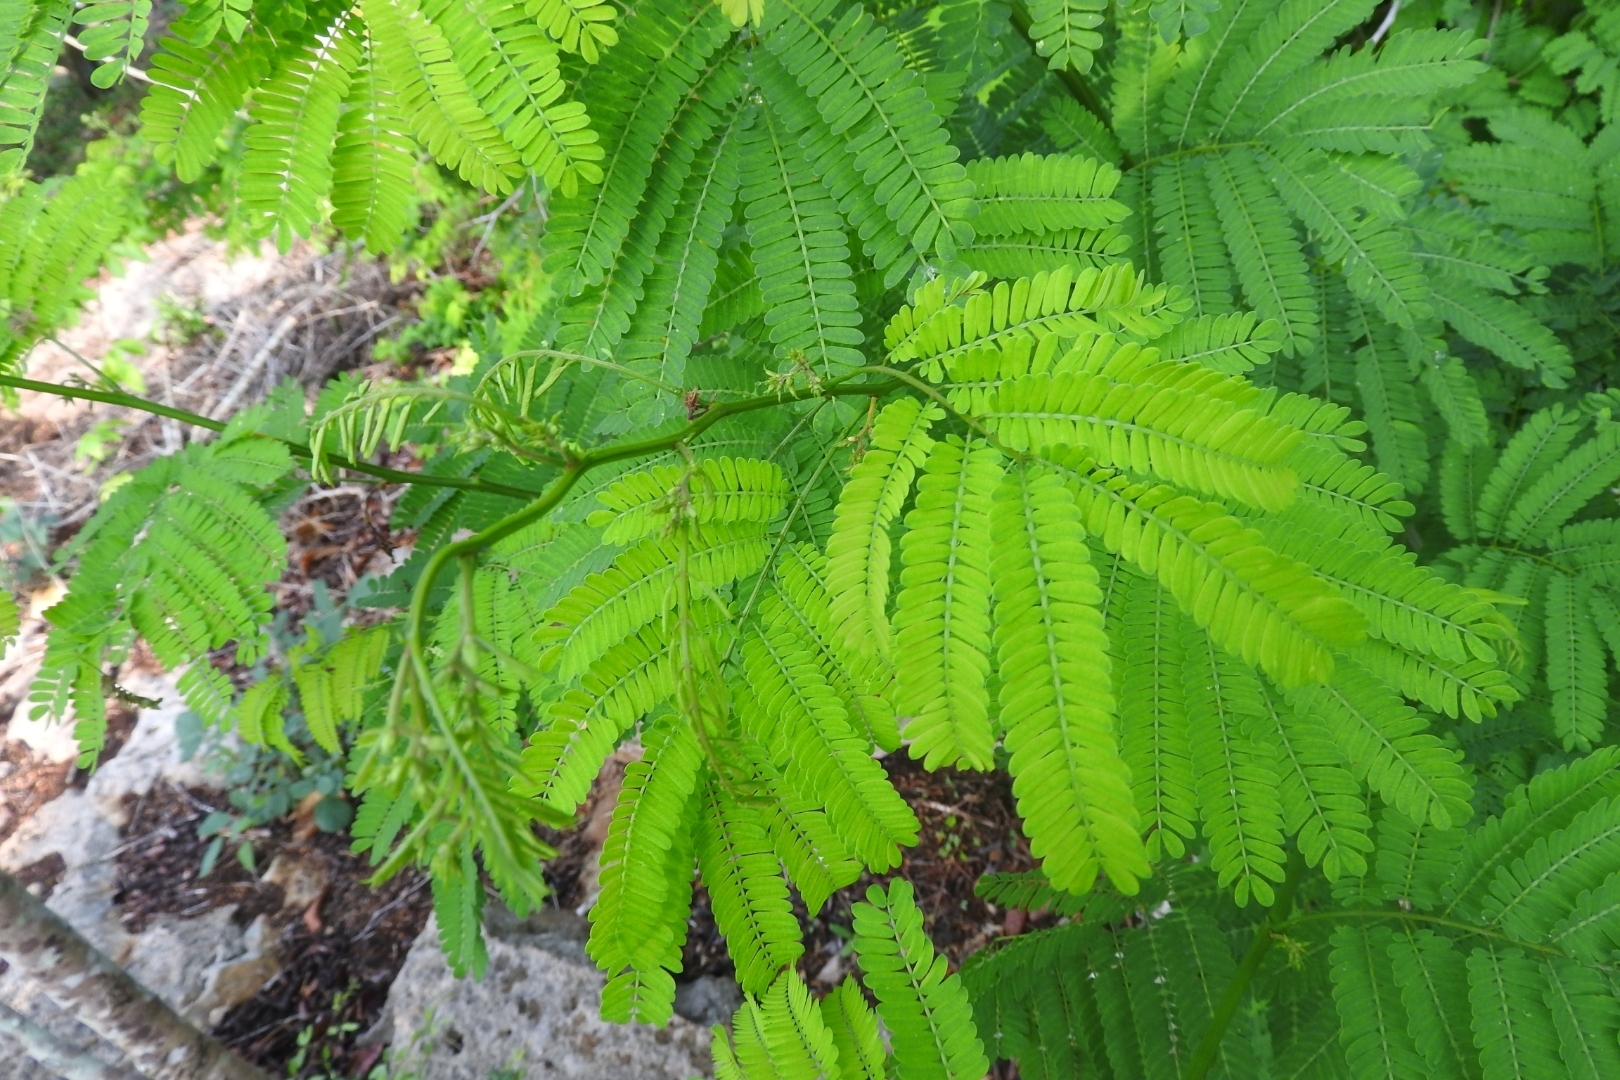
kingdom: Plantae
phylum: Tracheophyta
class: Magnoliopsida
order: Fabales
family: Fabaceae
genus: Lysiloma
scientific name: Lysiloma latisiliquum
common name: Wild tamarind
